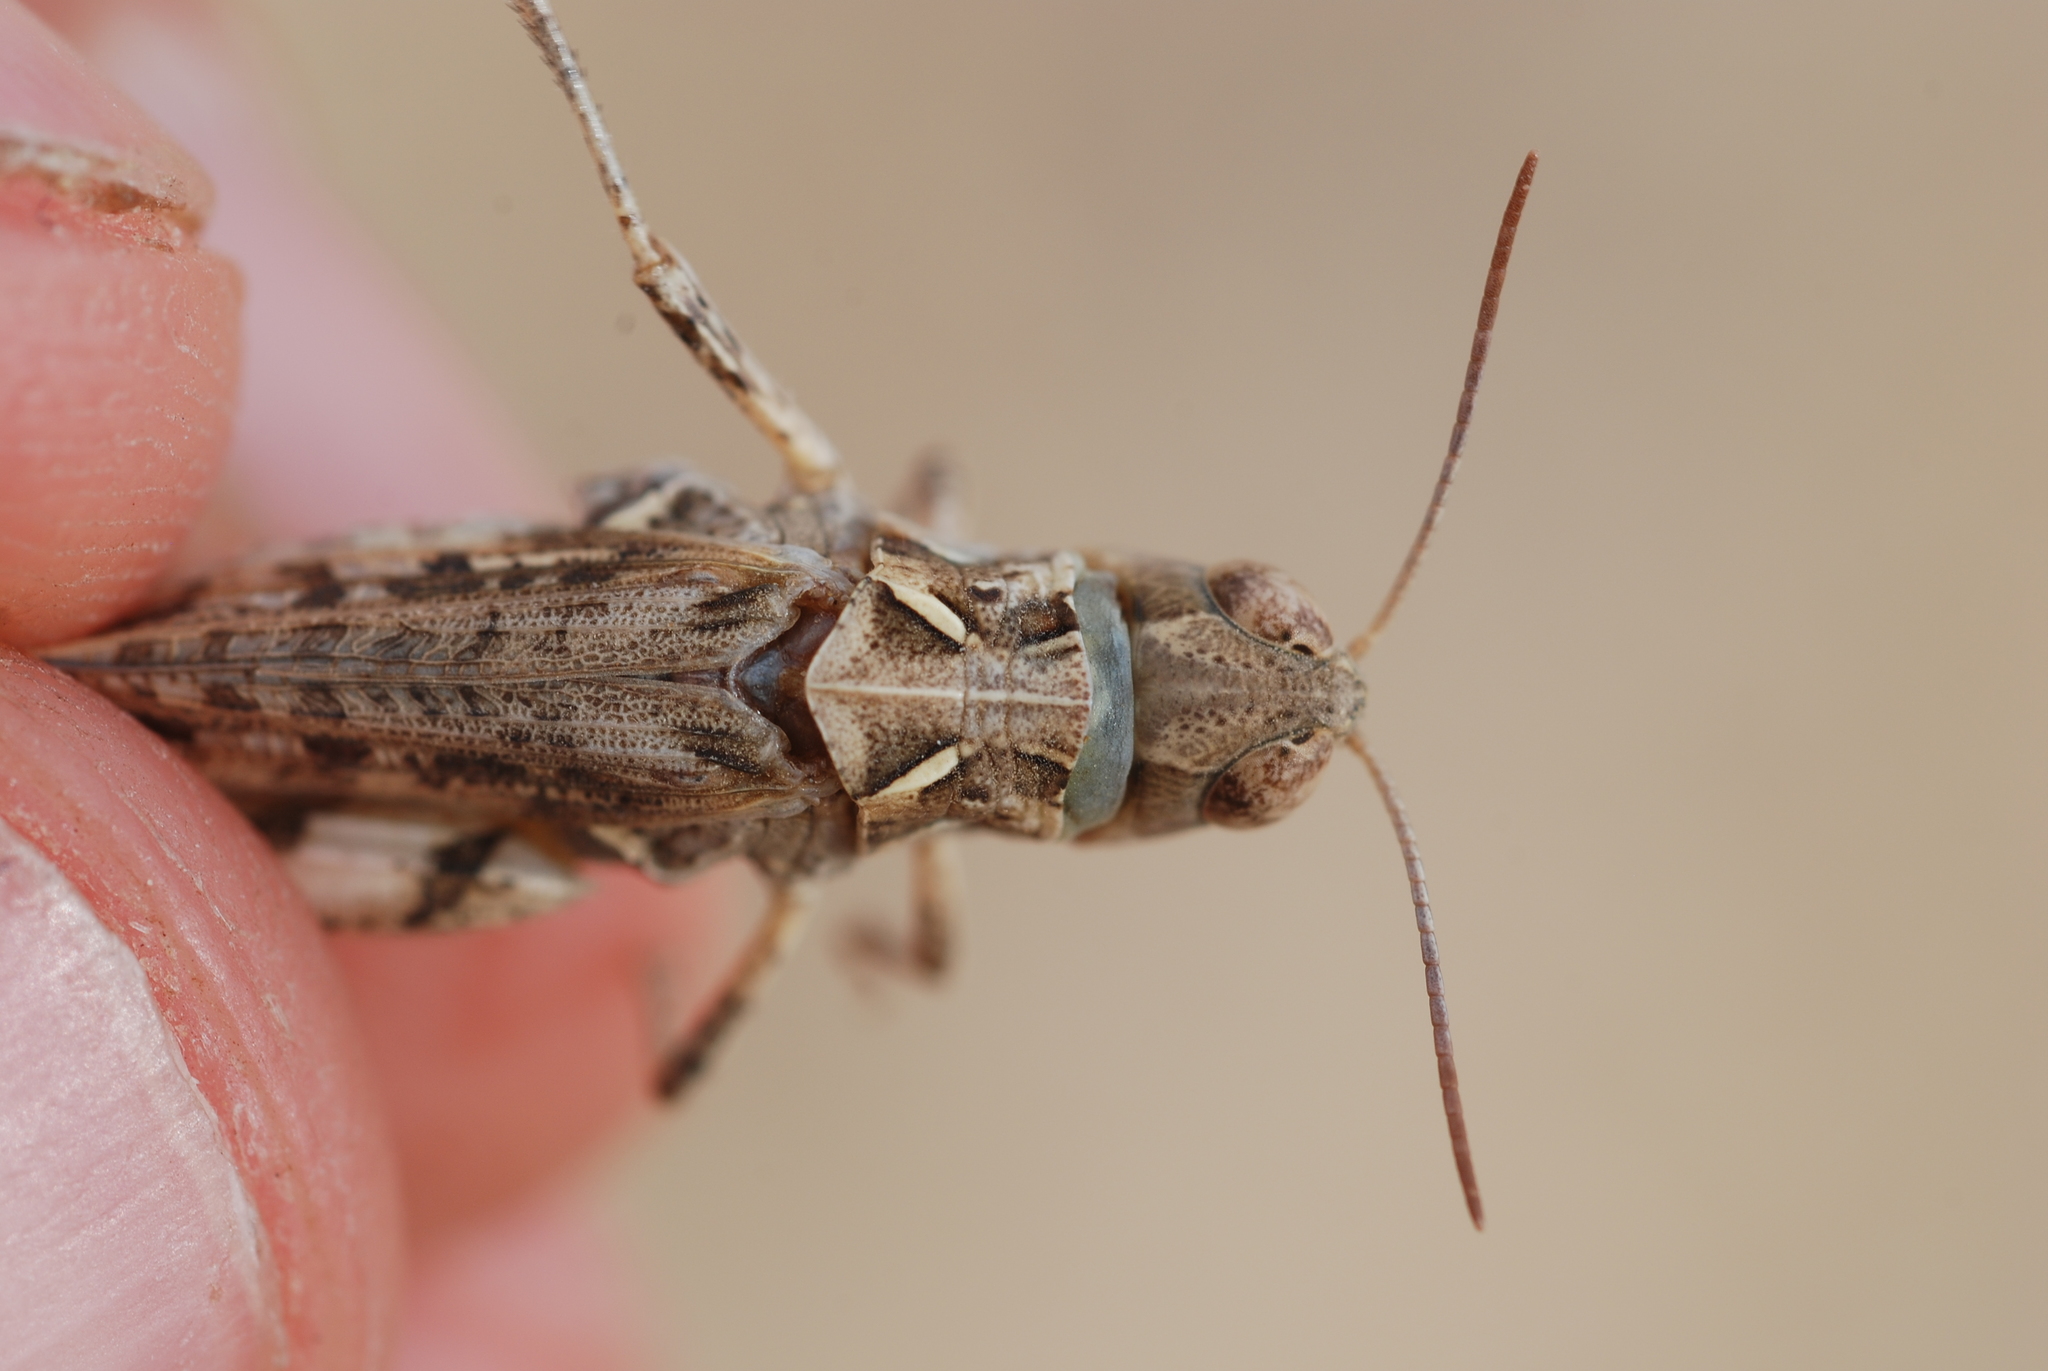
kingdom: Animalia
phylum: Arthropoda
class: Insecta
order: Orthoptera
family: Acrididae
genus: Dociostaurus
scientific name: Dociostaurus jagoi
